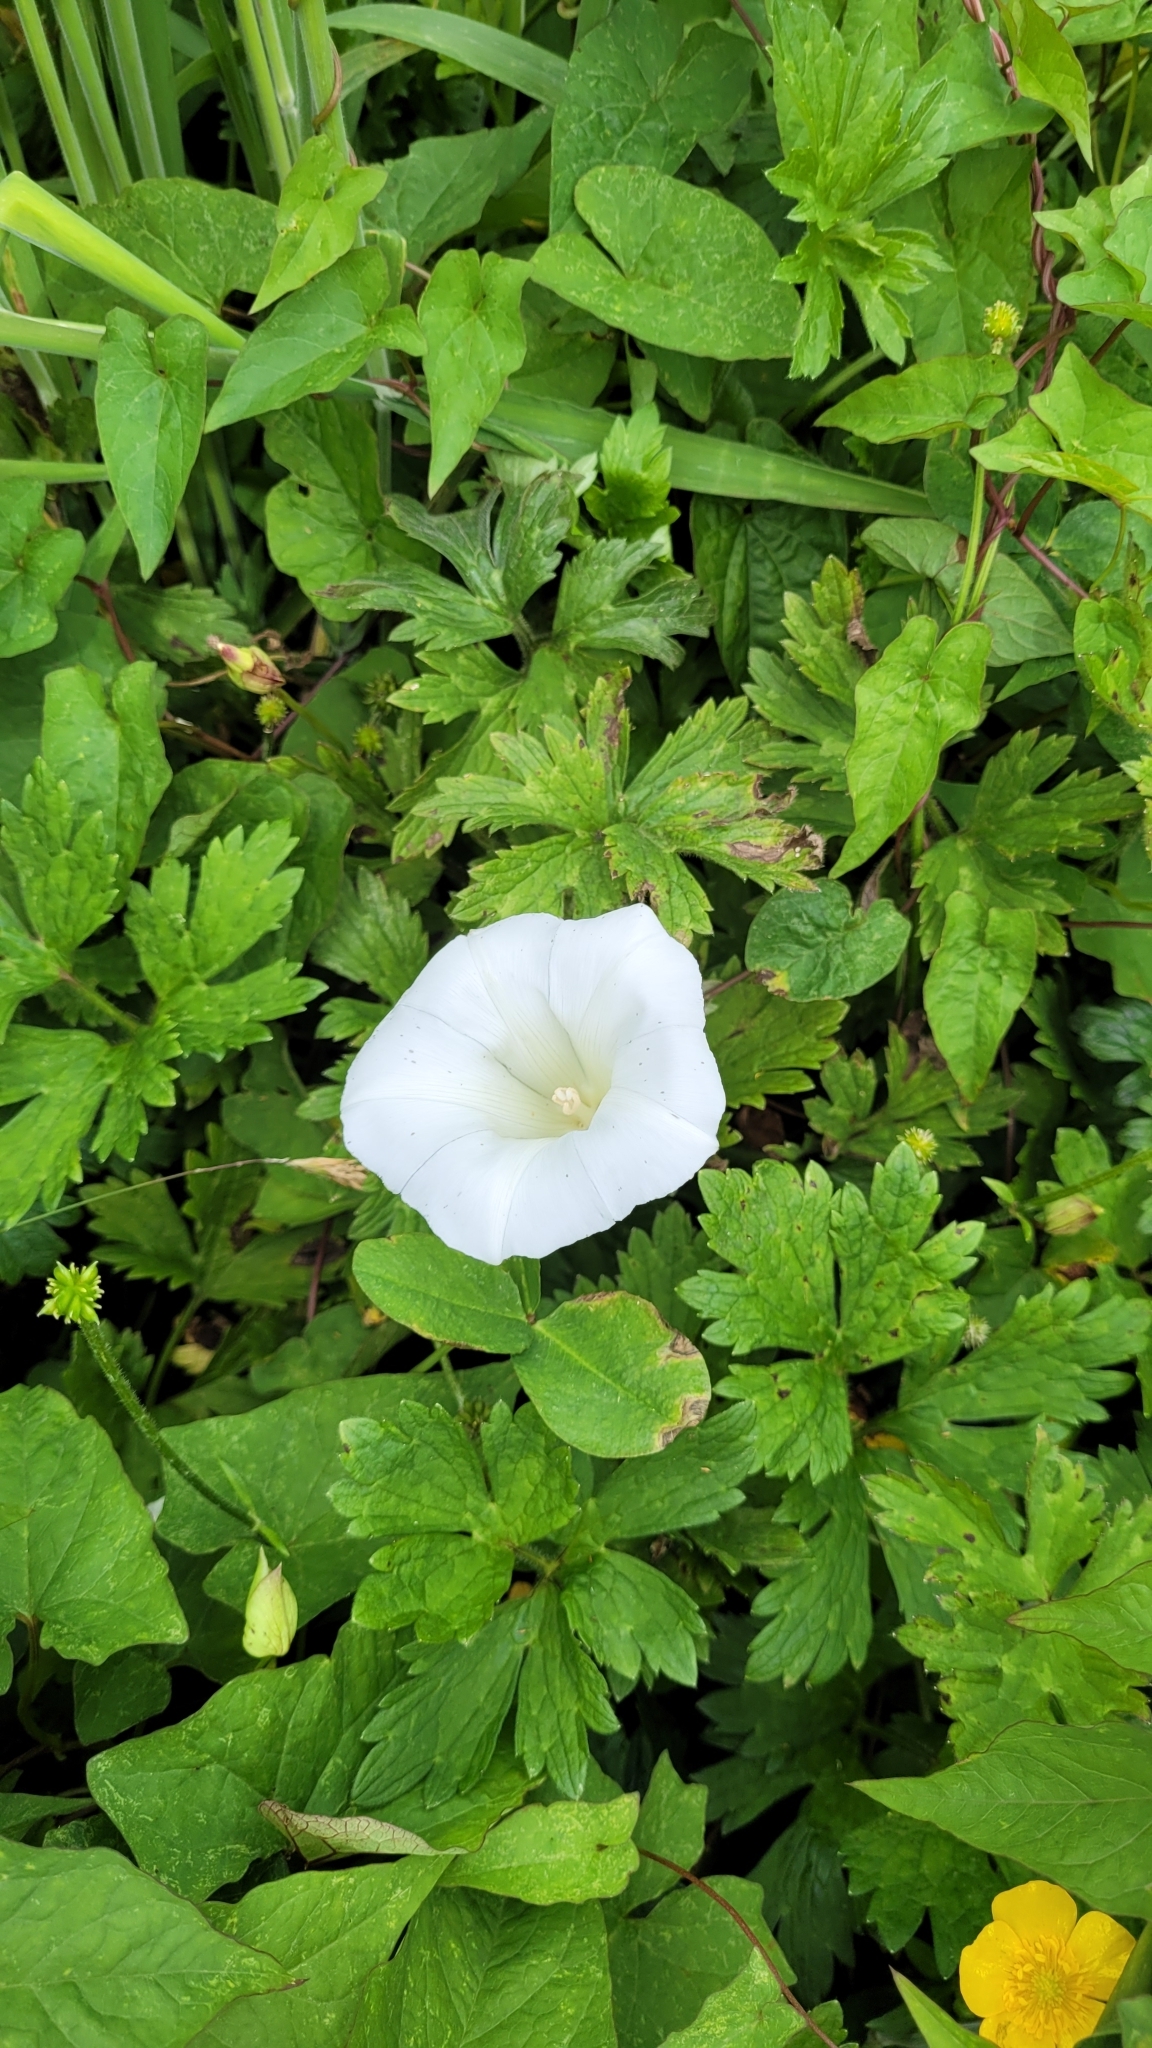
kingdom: Plantae
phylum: Tracheophyta
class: Magnoliopsida
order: Solanales
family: Convolvulaceae
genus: Calystegia
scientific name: Calystegia silvatica
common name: Large bindweed
